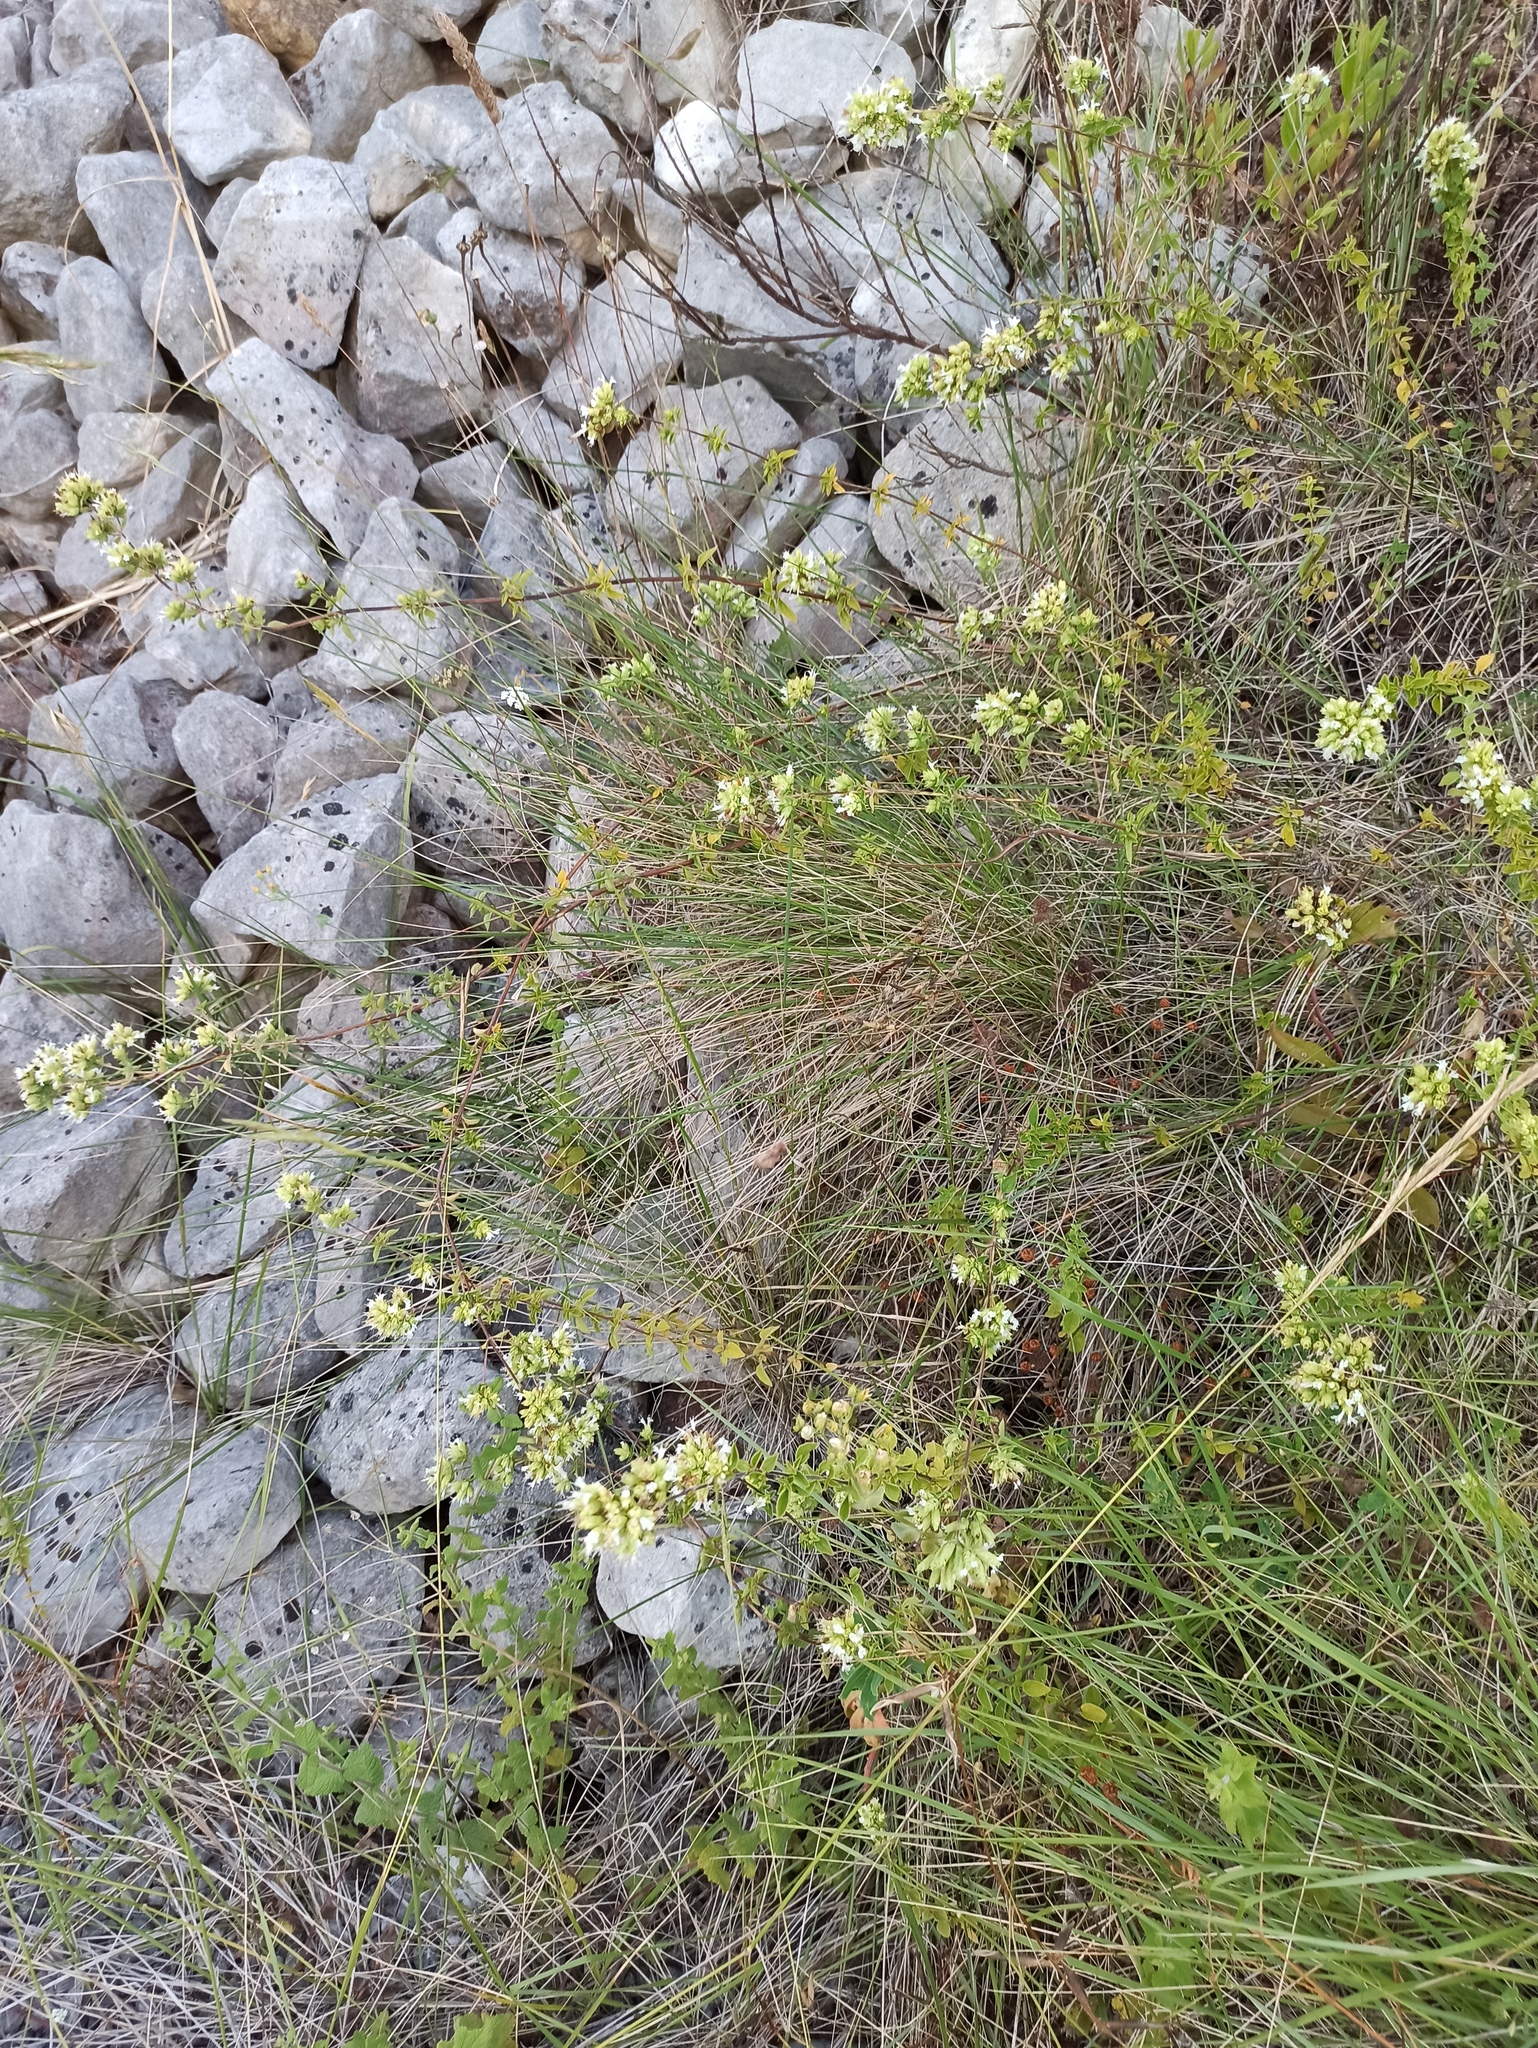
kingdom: Plantae
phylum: Tracheophyta
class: Magnoliopsida
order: Lamiales
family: Lamiaceae
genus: Origanum
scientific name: Origanum vulgare
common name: Wild marjoram
